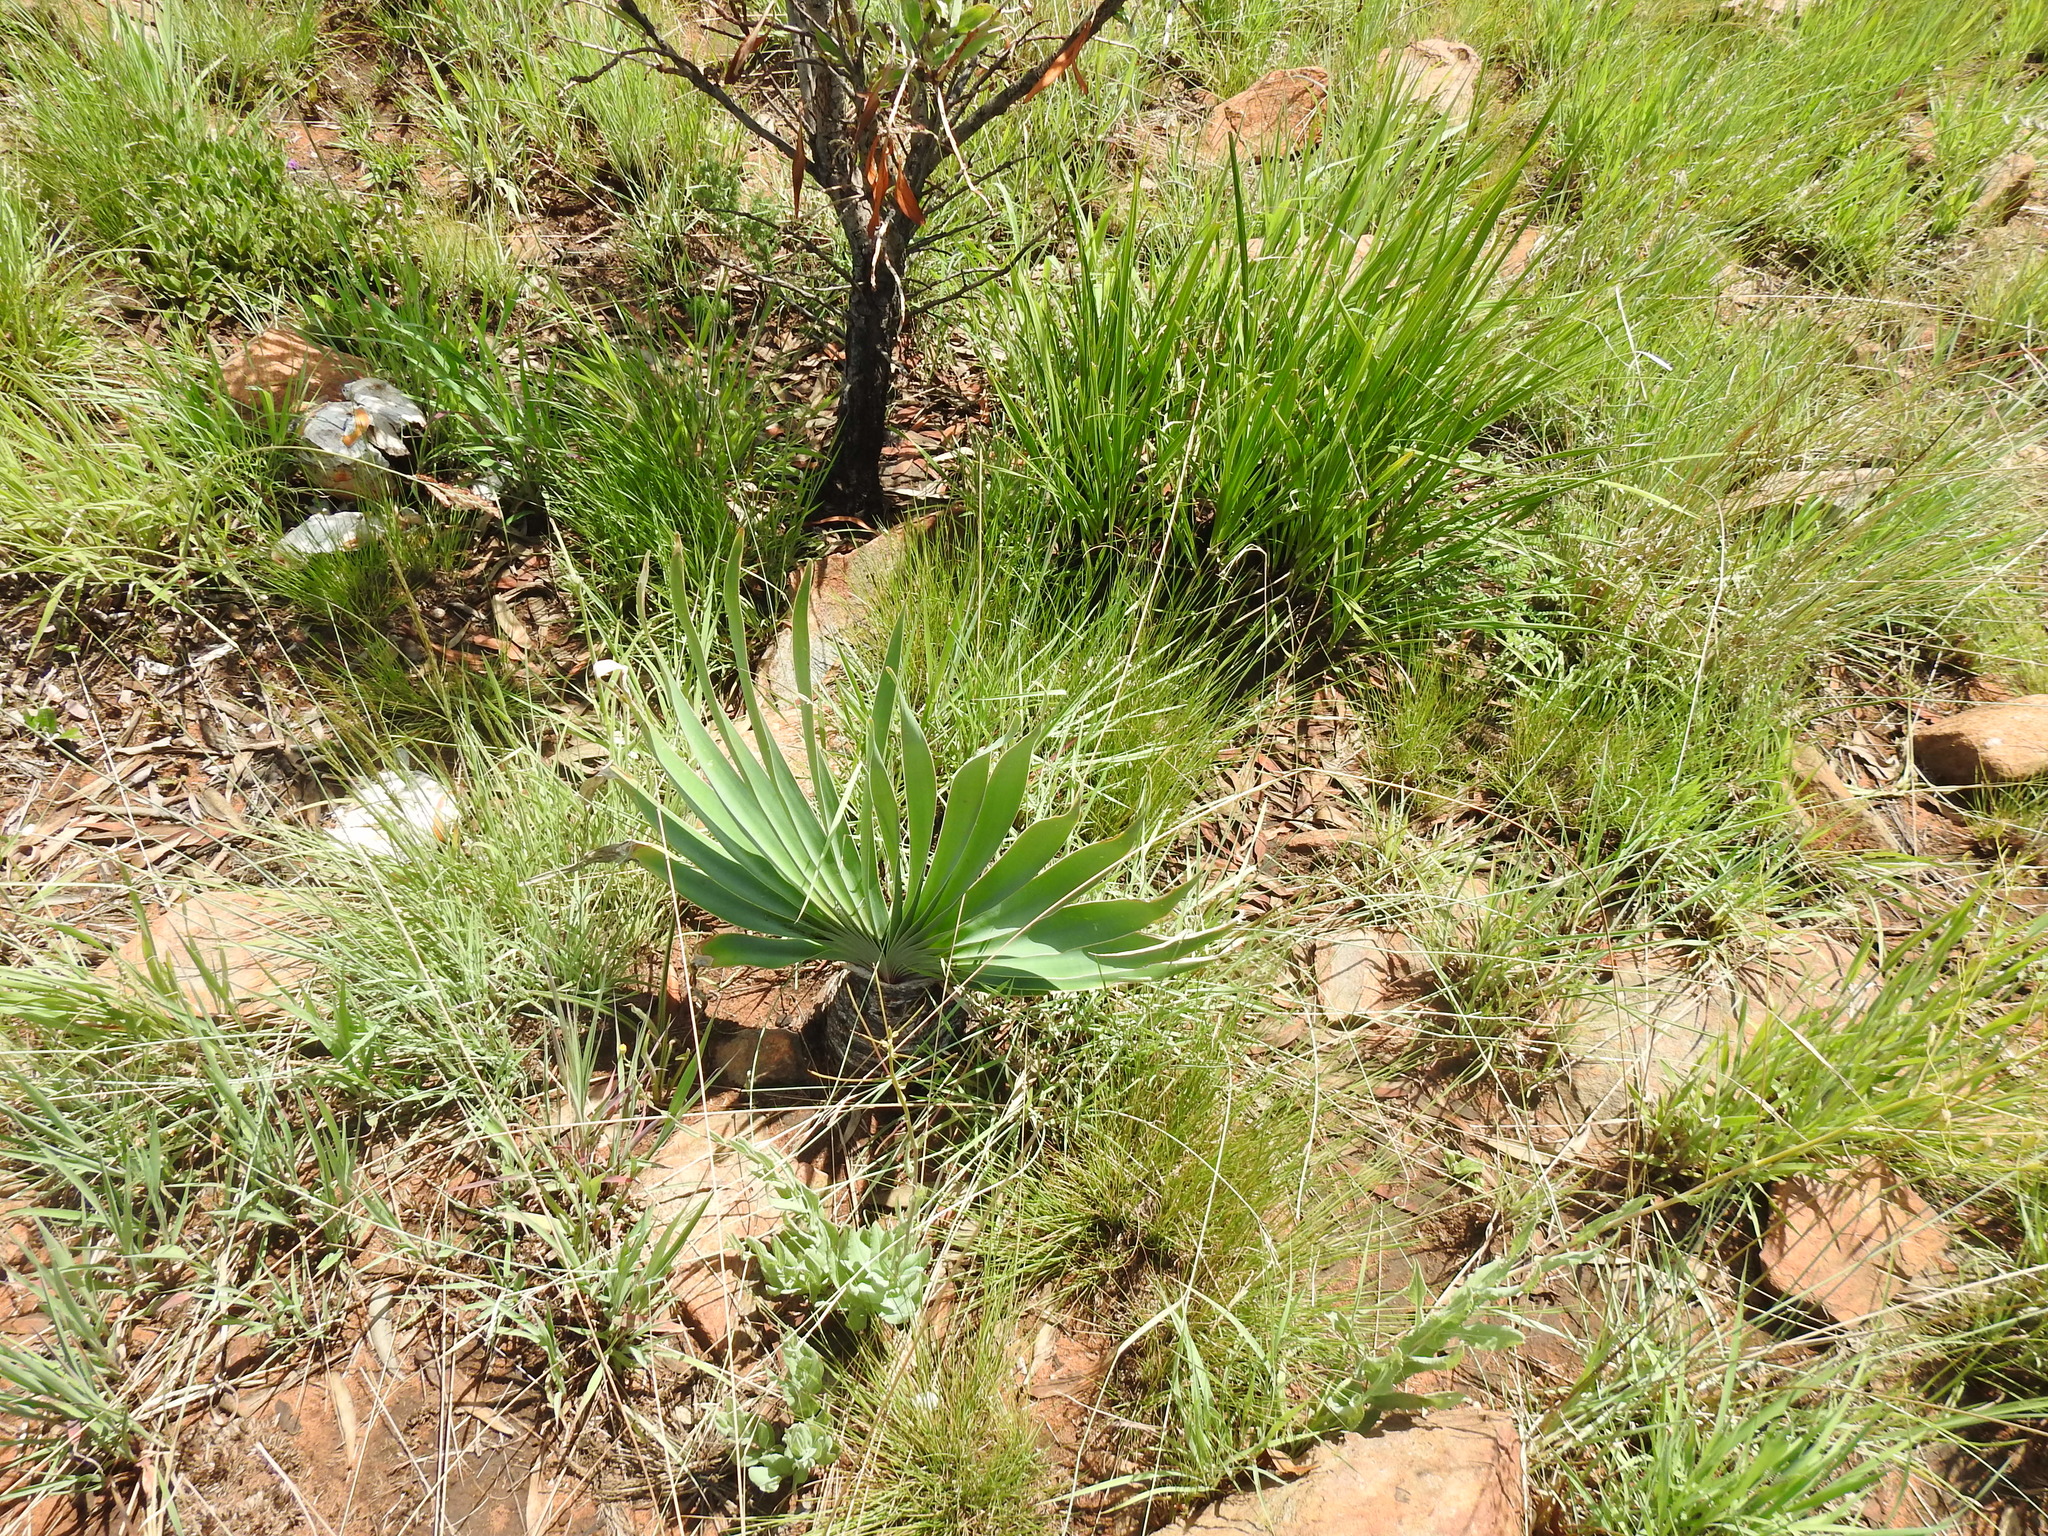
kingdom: Plantae
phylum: Tracheophyta
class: Liliopsida
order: Asparagales
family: Amaryllidaceae
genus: Boophone
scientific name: Boophone disticha
